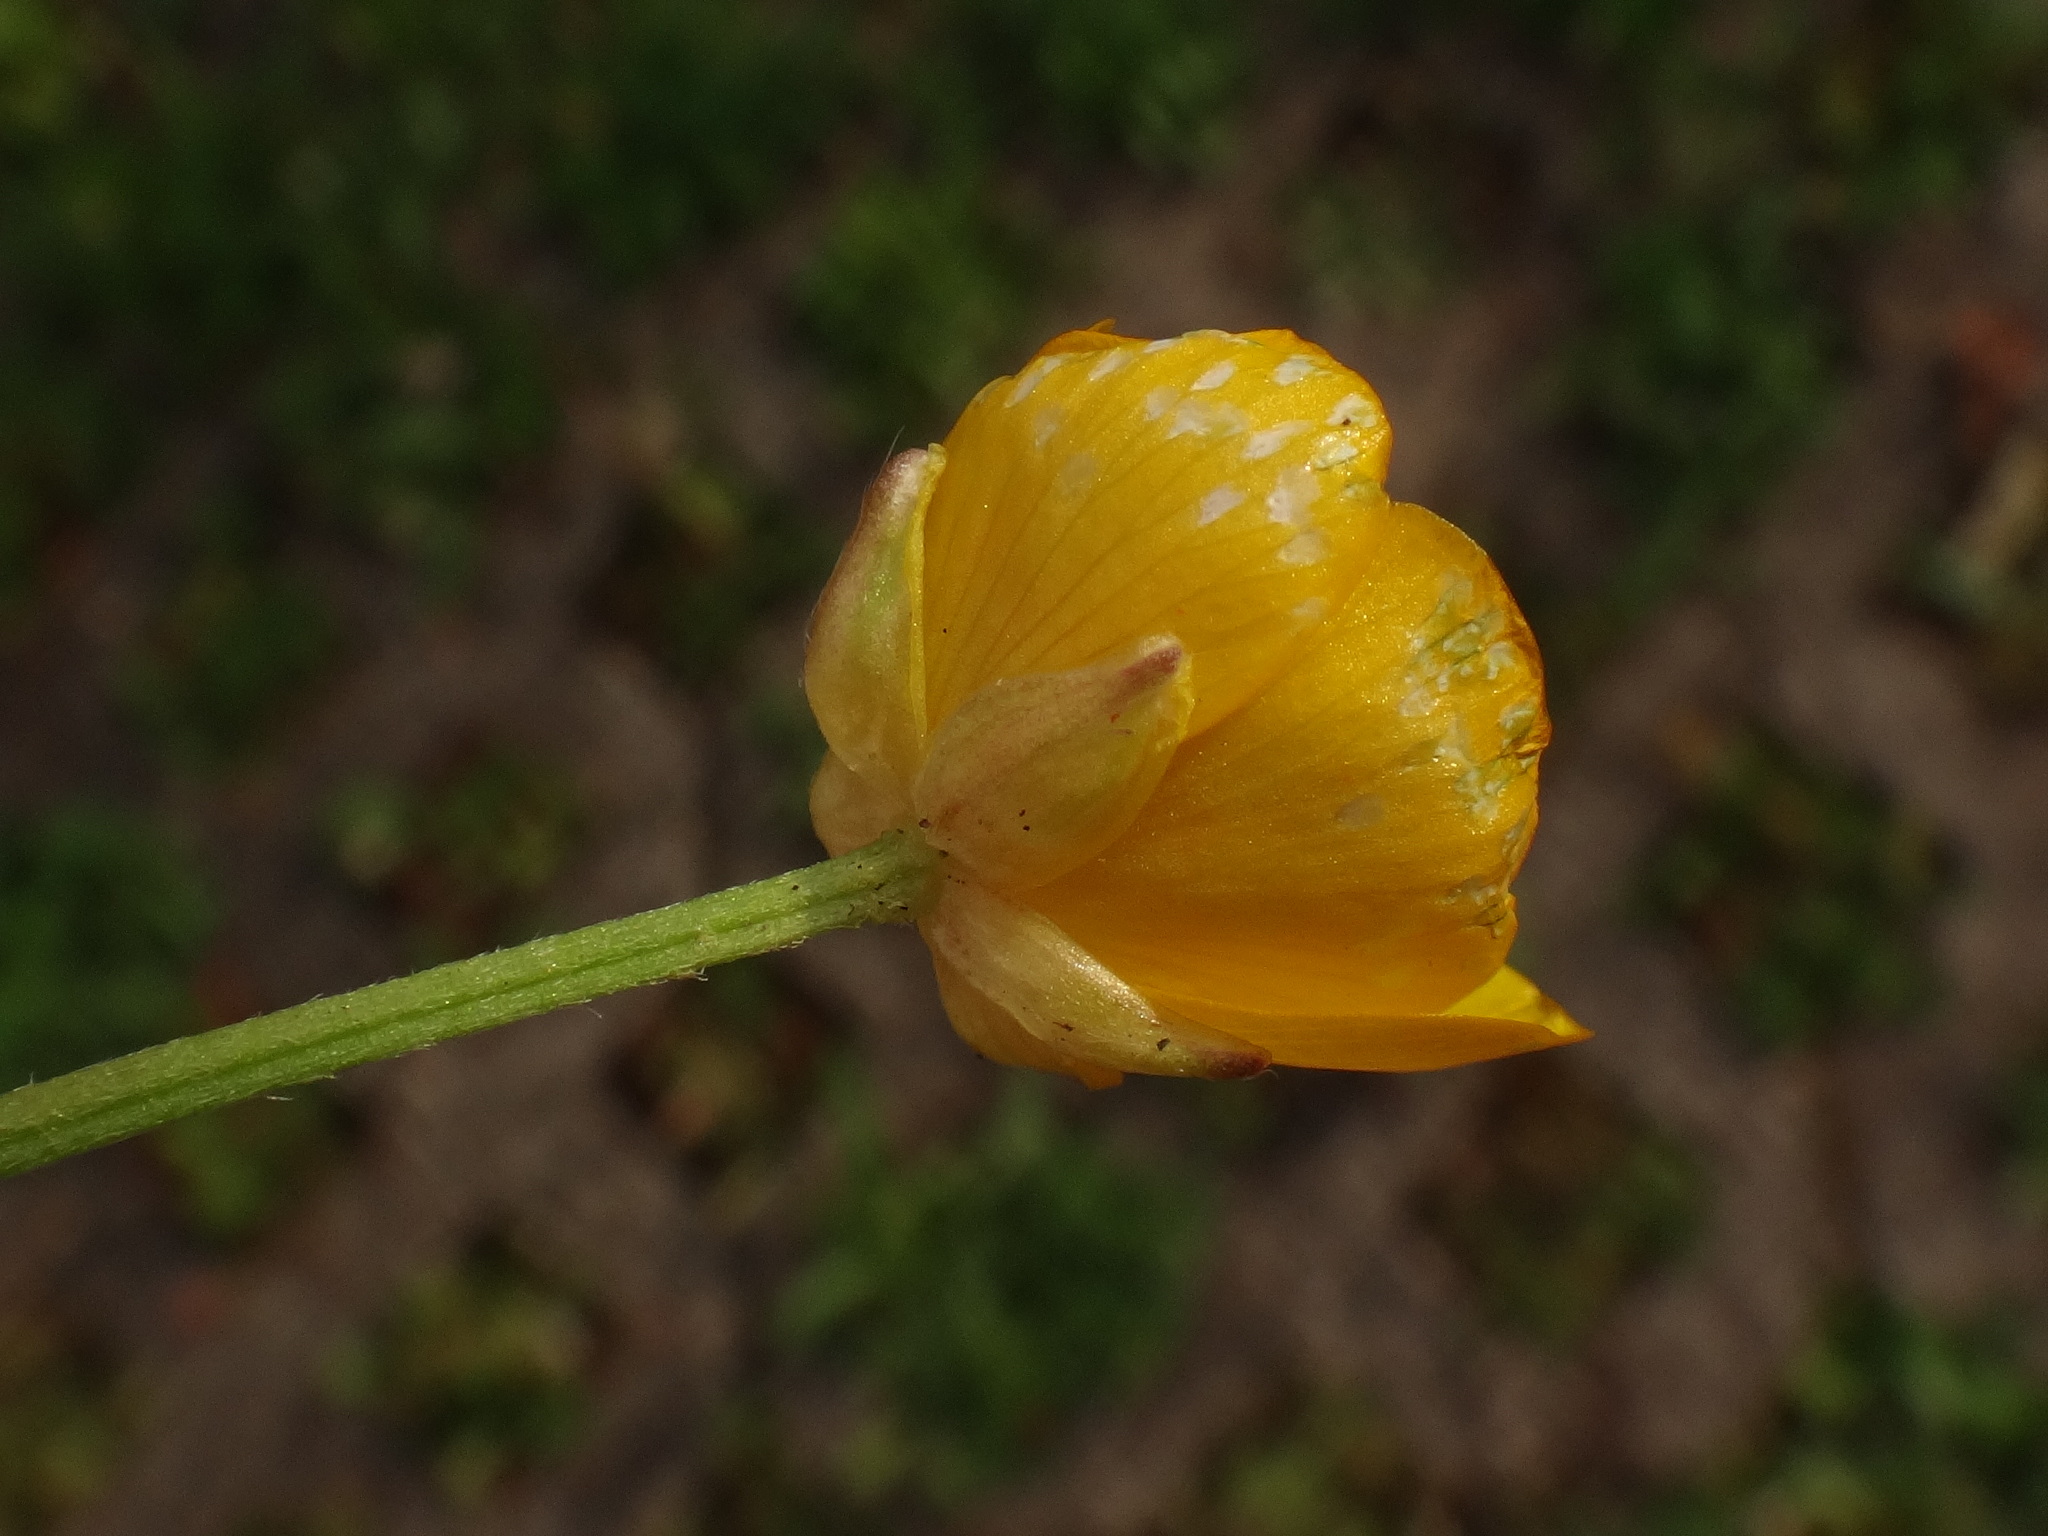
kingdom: Plantae
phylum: Tracheophyta
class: Magnoliopsida
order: Ranunculales
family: Ranunculaceae
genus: Ranunculus
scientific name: Ranunculus repens
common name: Creeping buttercup
